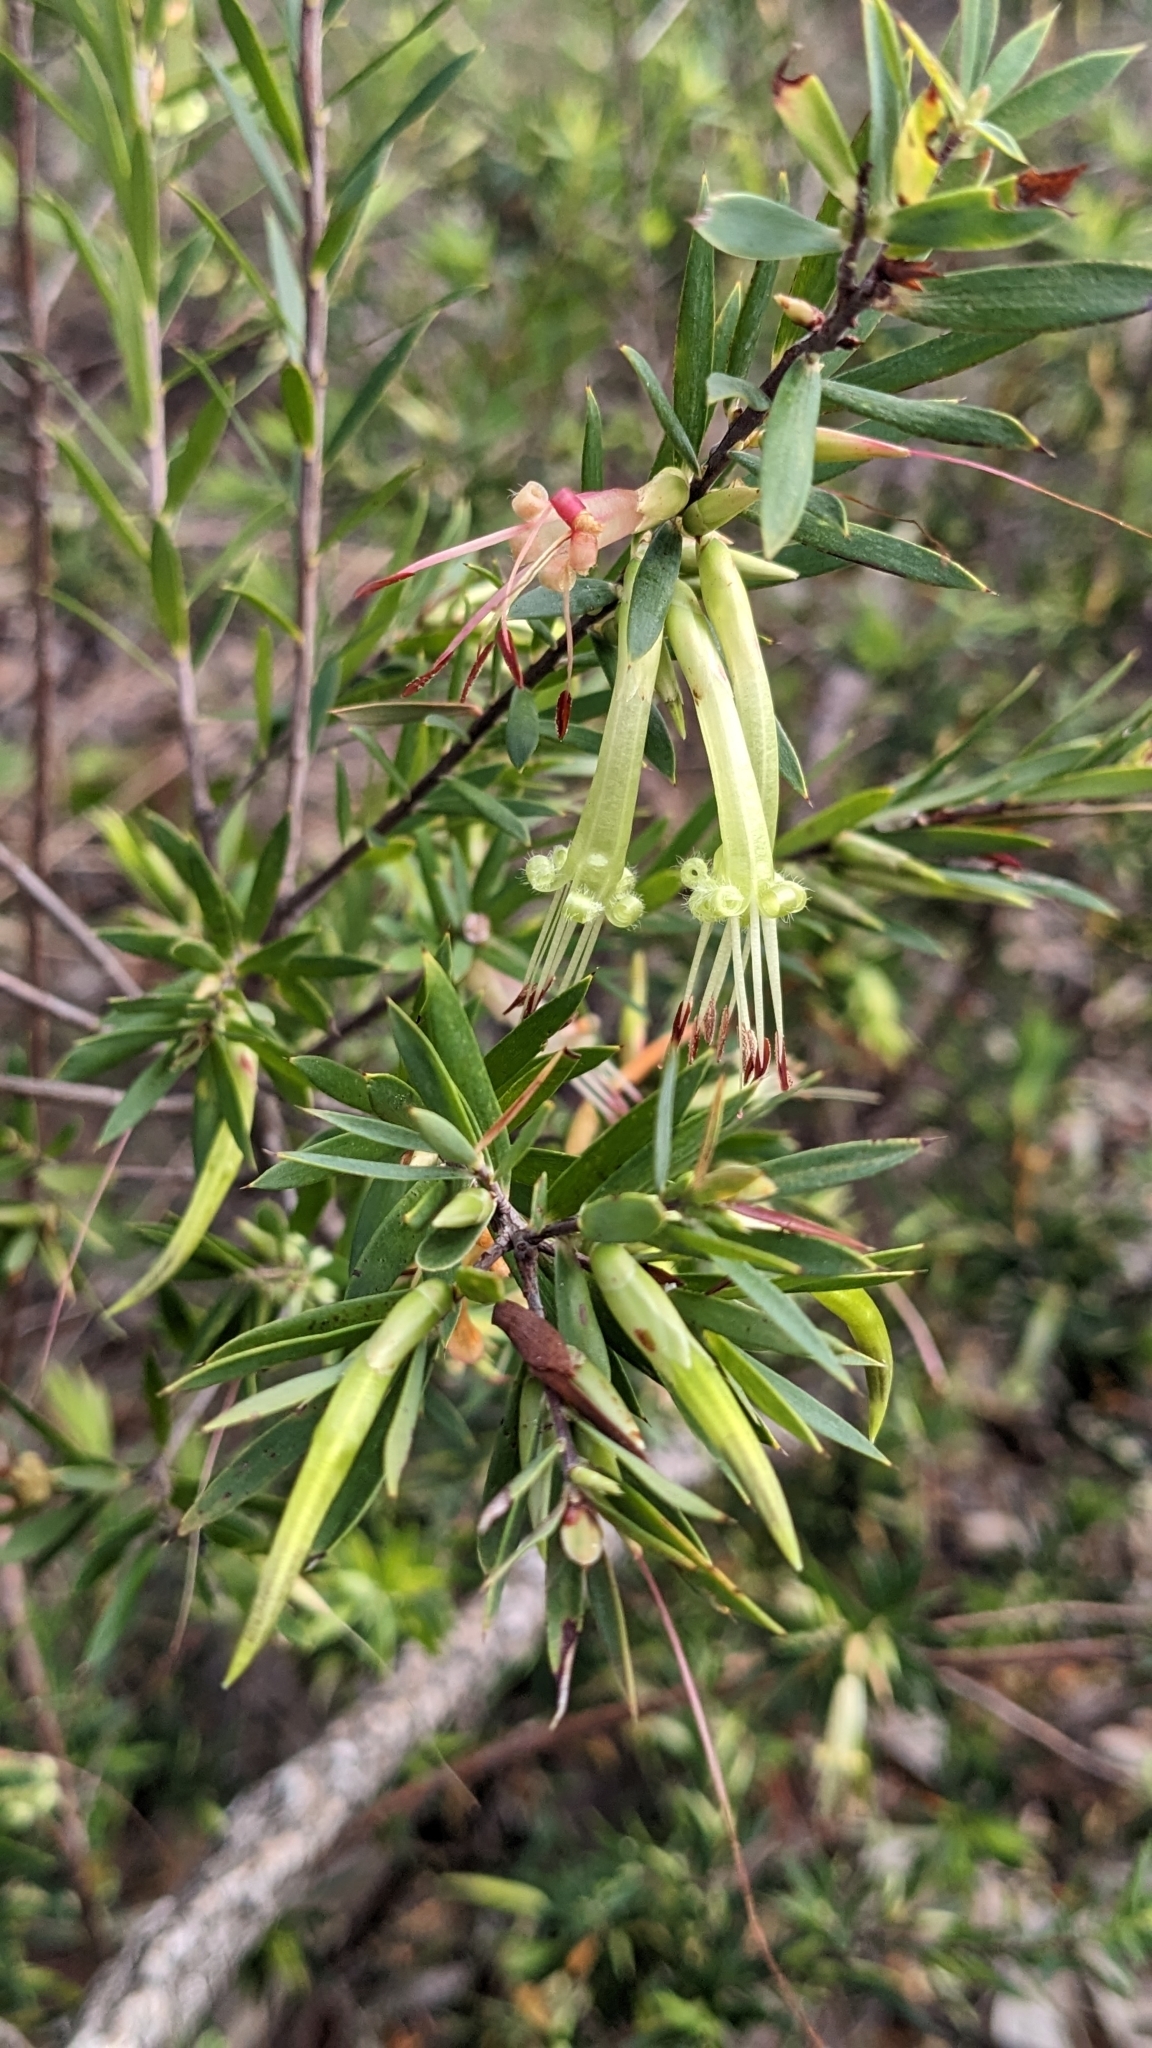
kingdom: Plantae
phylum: Tracheophyta
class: Magnoliopsida
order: Ericales
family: Ericaceae
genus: Styphelia
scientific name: Styphelia viridis
